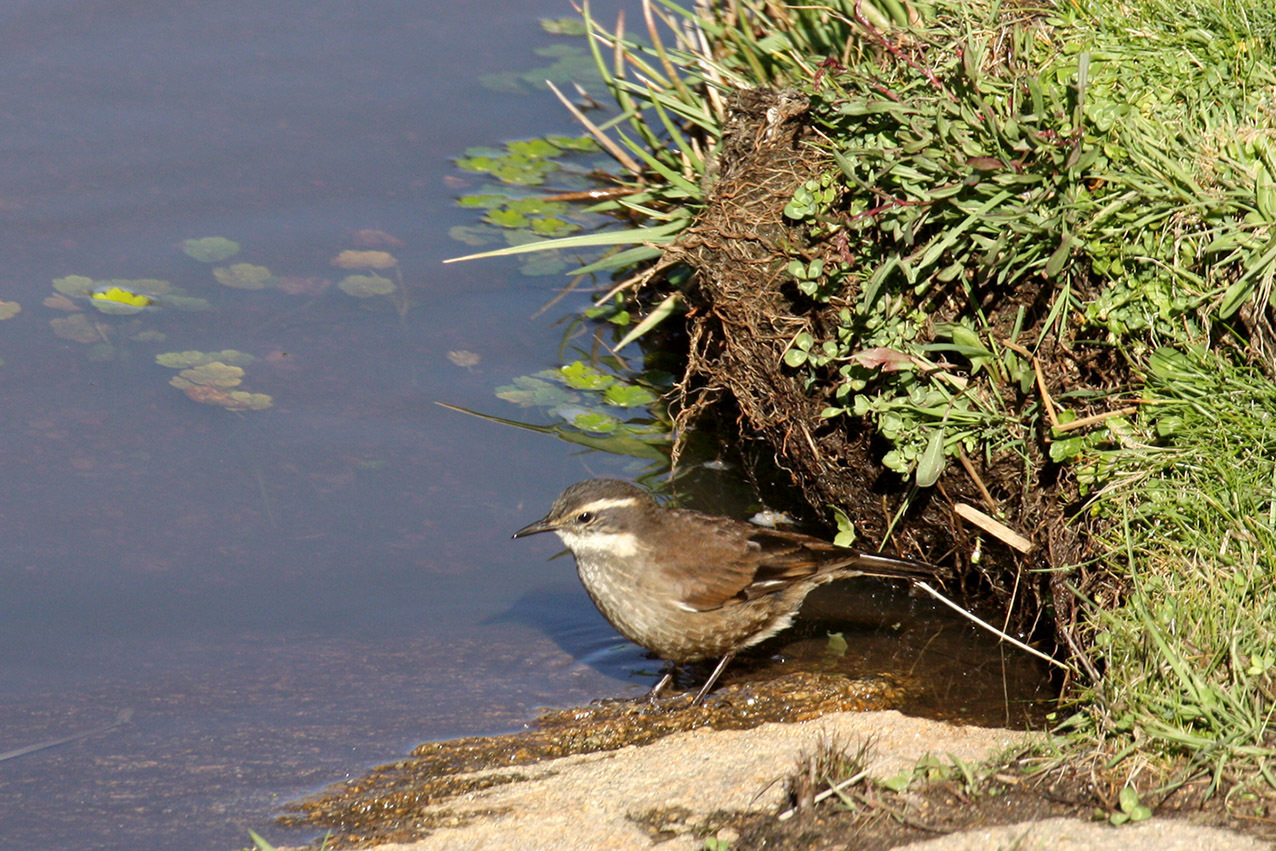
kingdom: Animalia
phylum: Chordata
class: Aves
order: Passeriformes
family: Furnariidae
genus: Cinclodes
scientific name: Cinclodes olrogi
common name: Olrog's cinclodes
